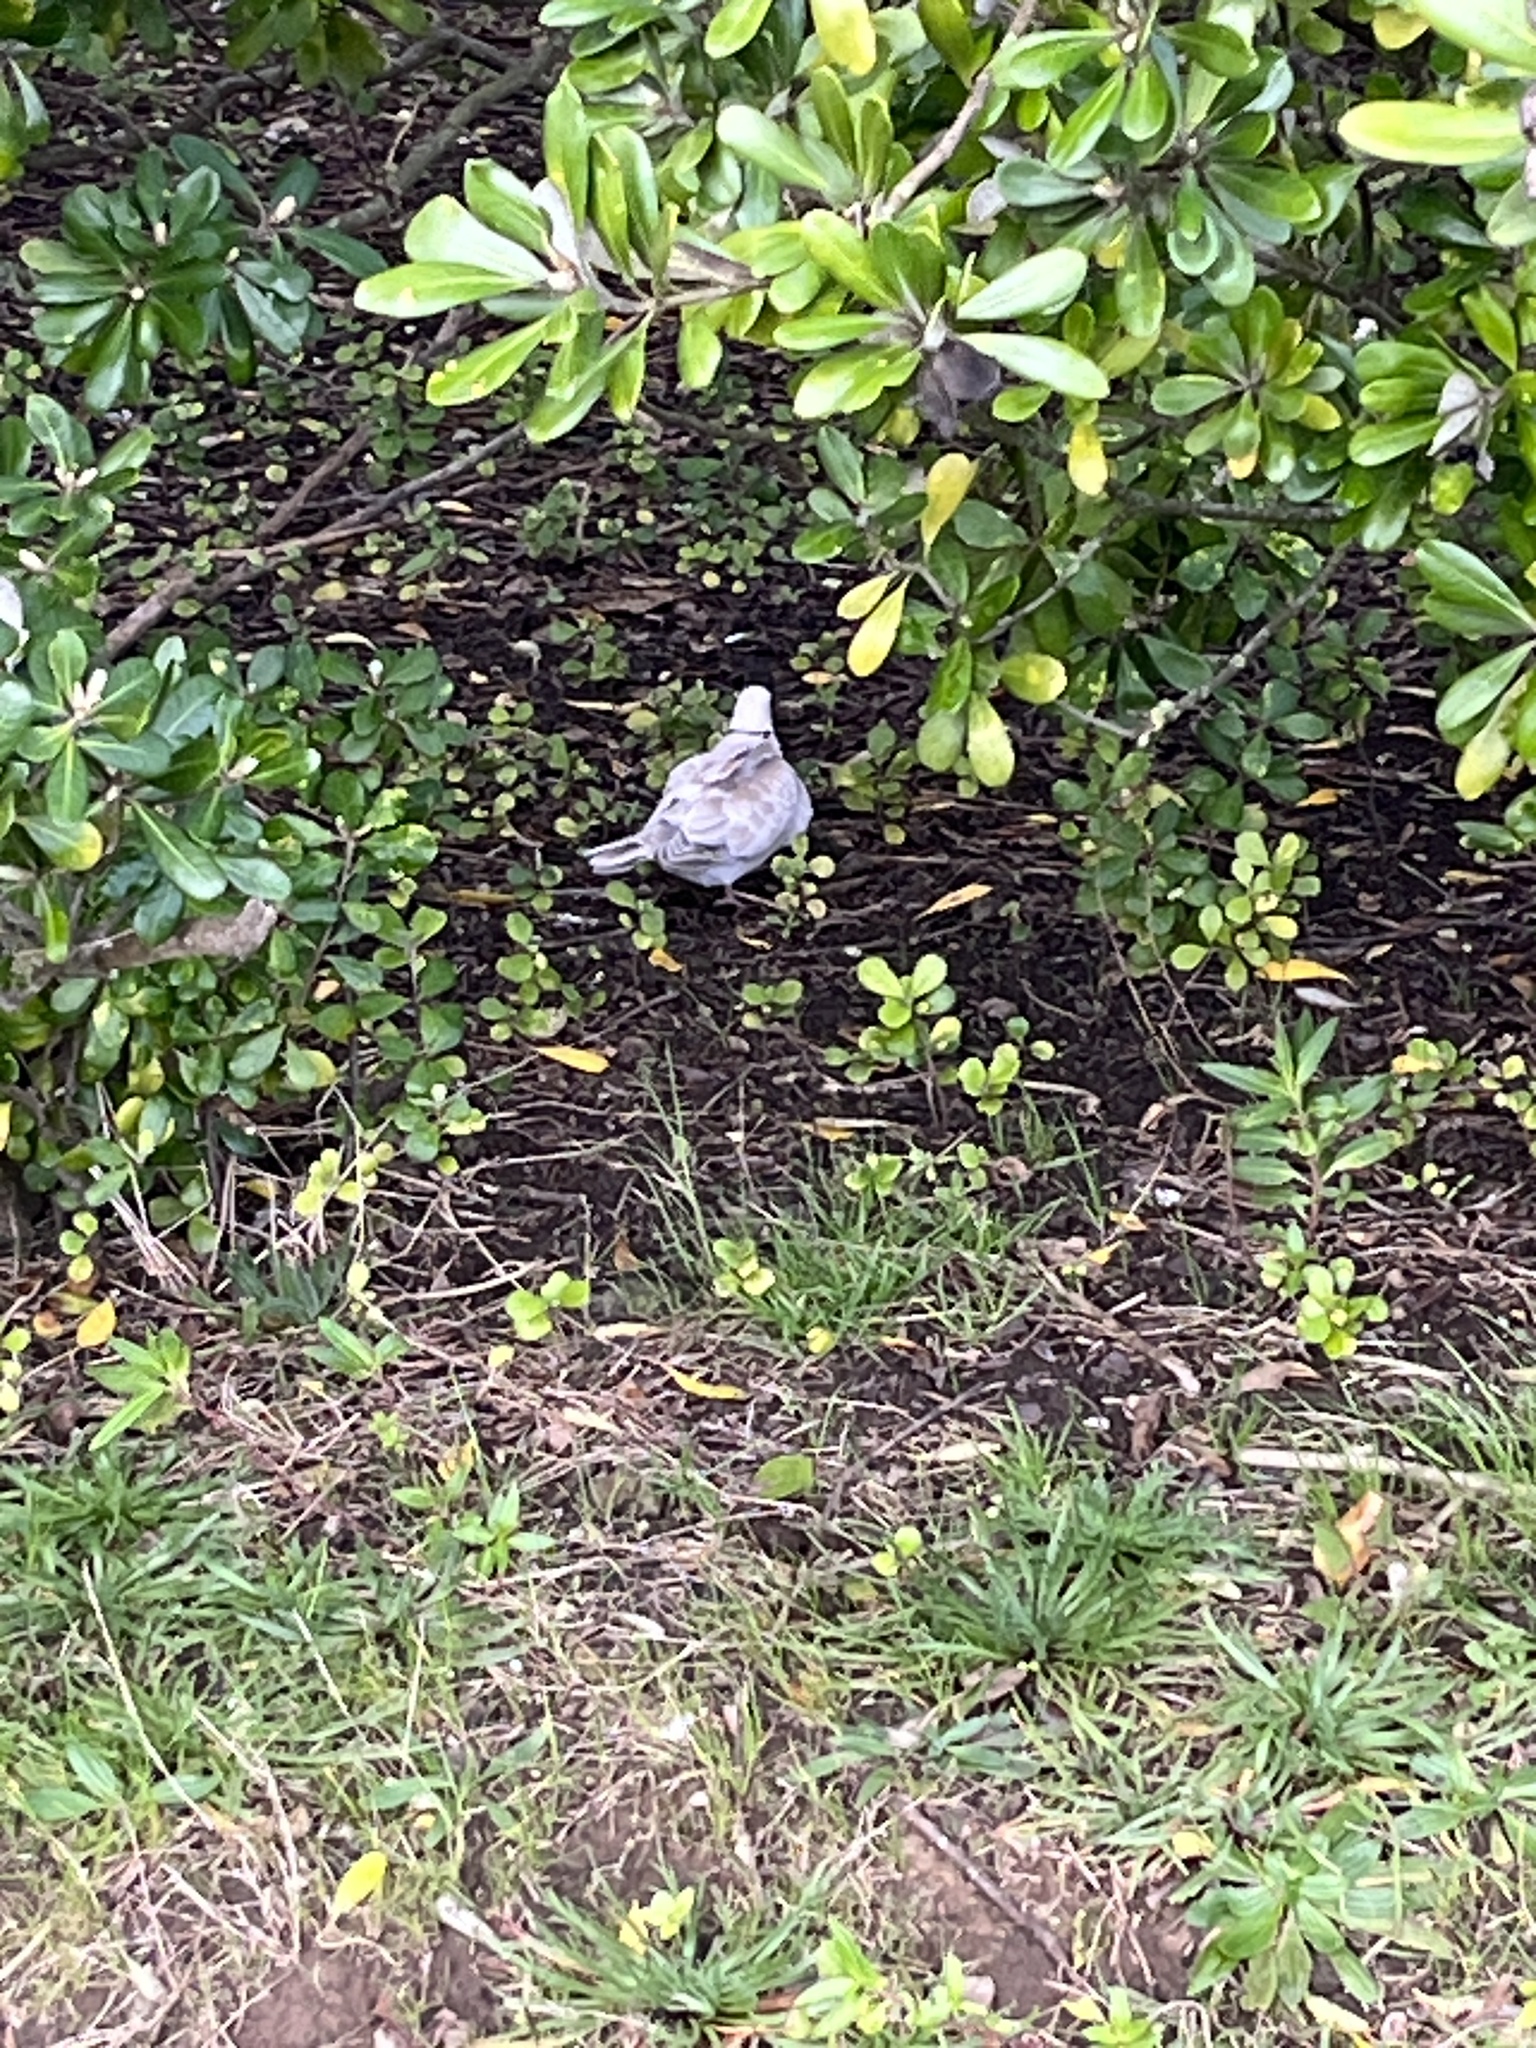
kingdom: Animalia
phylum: Chordata
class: Aves
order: Columbiformes
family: Columbidae
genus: Streptopelia
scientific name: Streptopelia roseogrisea
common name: African collared dove
